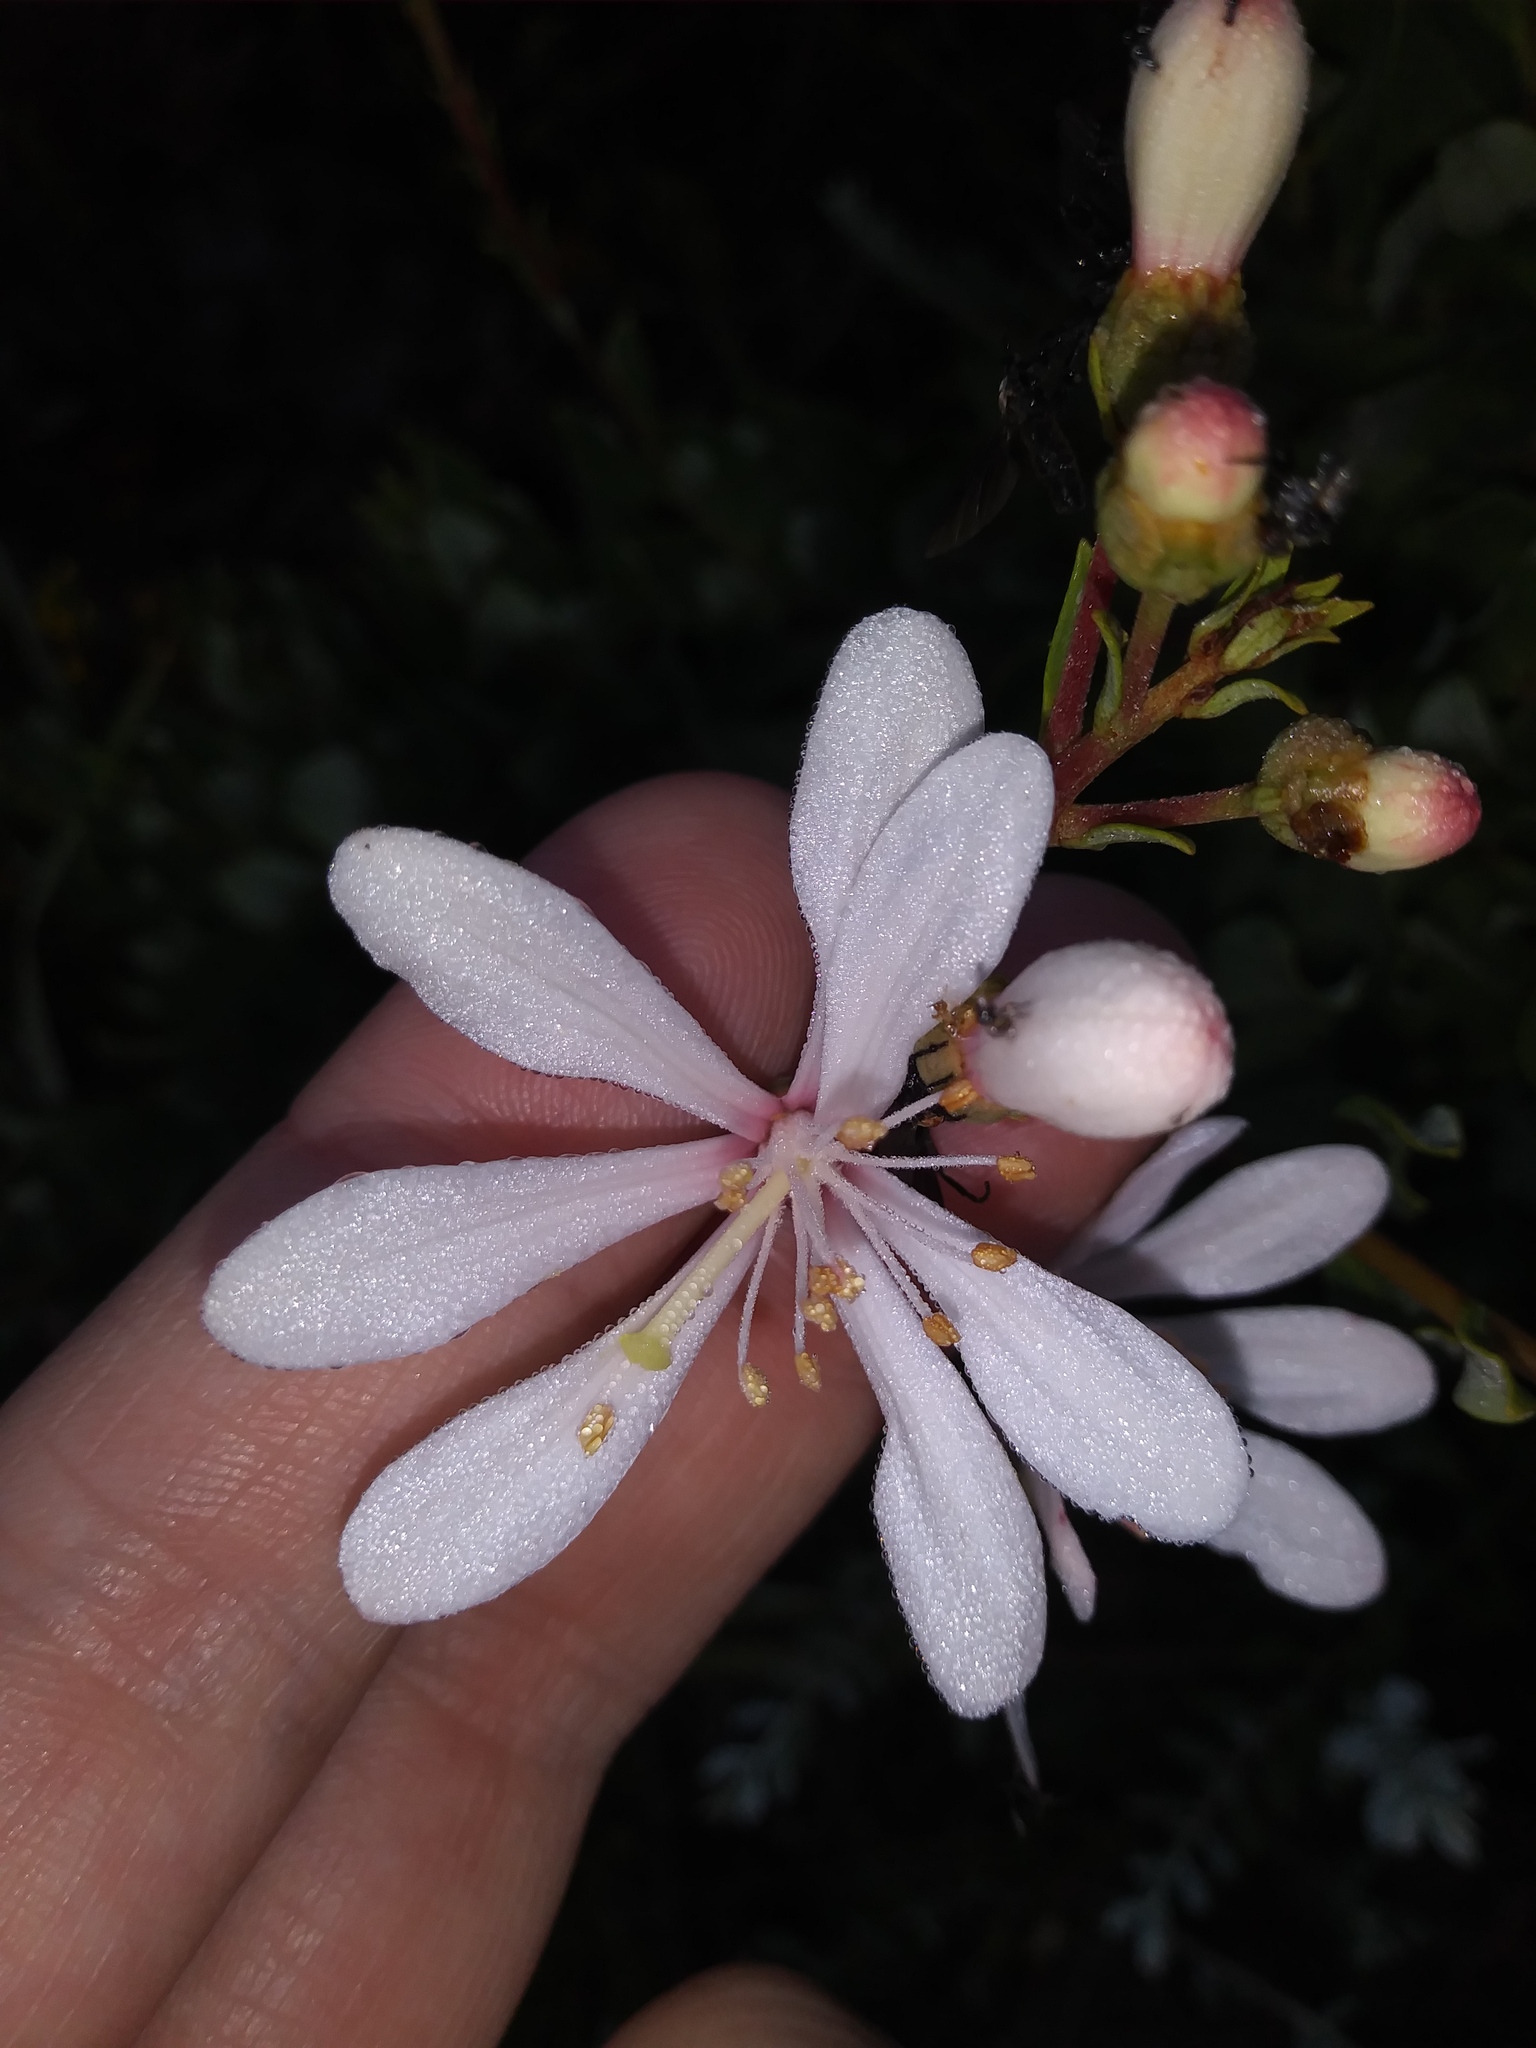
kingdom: Plantae
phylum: Tracheophyta
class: Magnoliopsida
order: Ericales
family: Ericaceae
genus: Bejaria
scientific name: Bejaria racemosa
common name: Tarflower
